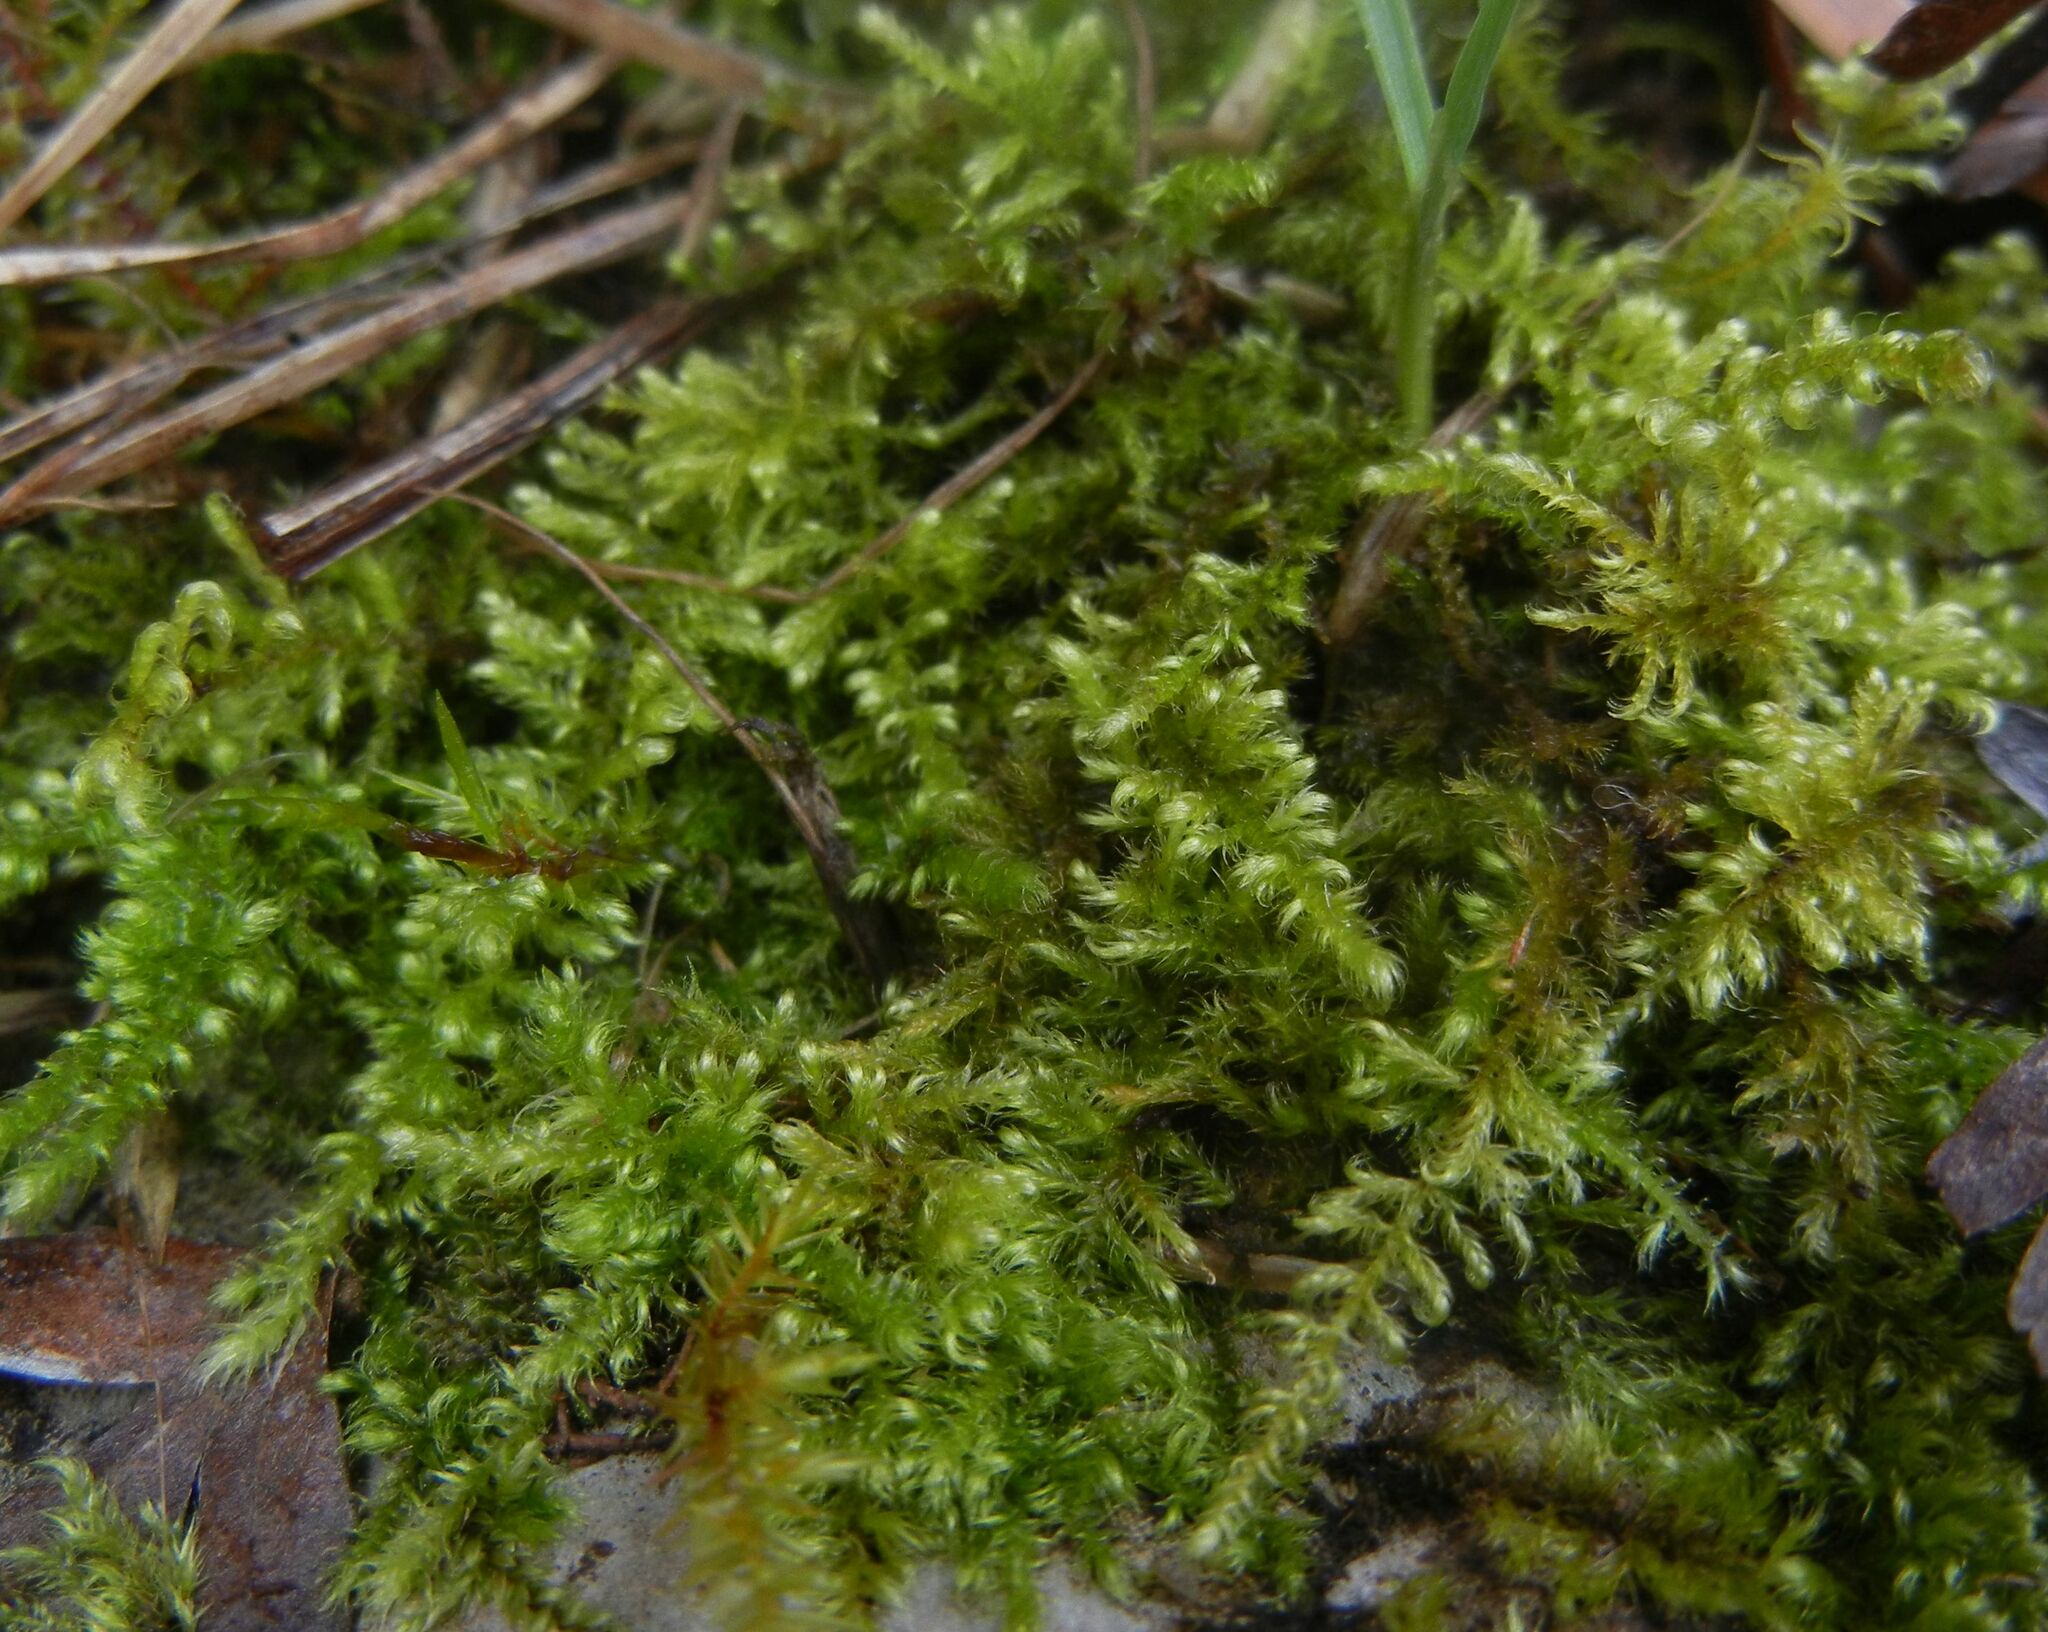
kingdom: Plantae
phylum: Bryophyta
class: Bryopsida
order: Hypnales
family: Myuriaceae
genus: Ctenidium
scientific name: Ctenidium molluscum
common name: Chalk comb-moss
